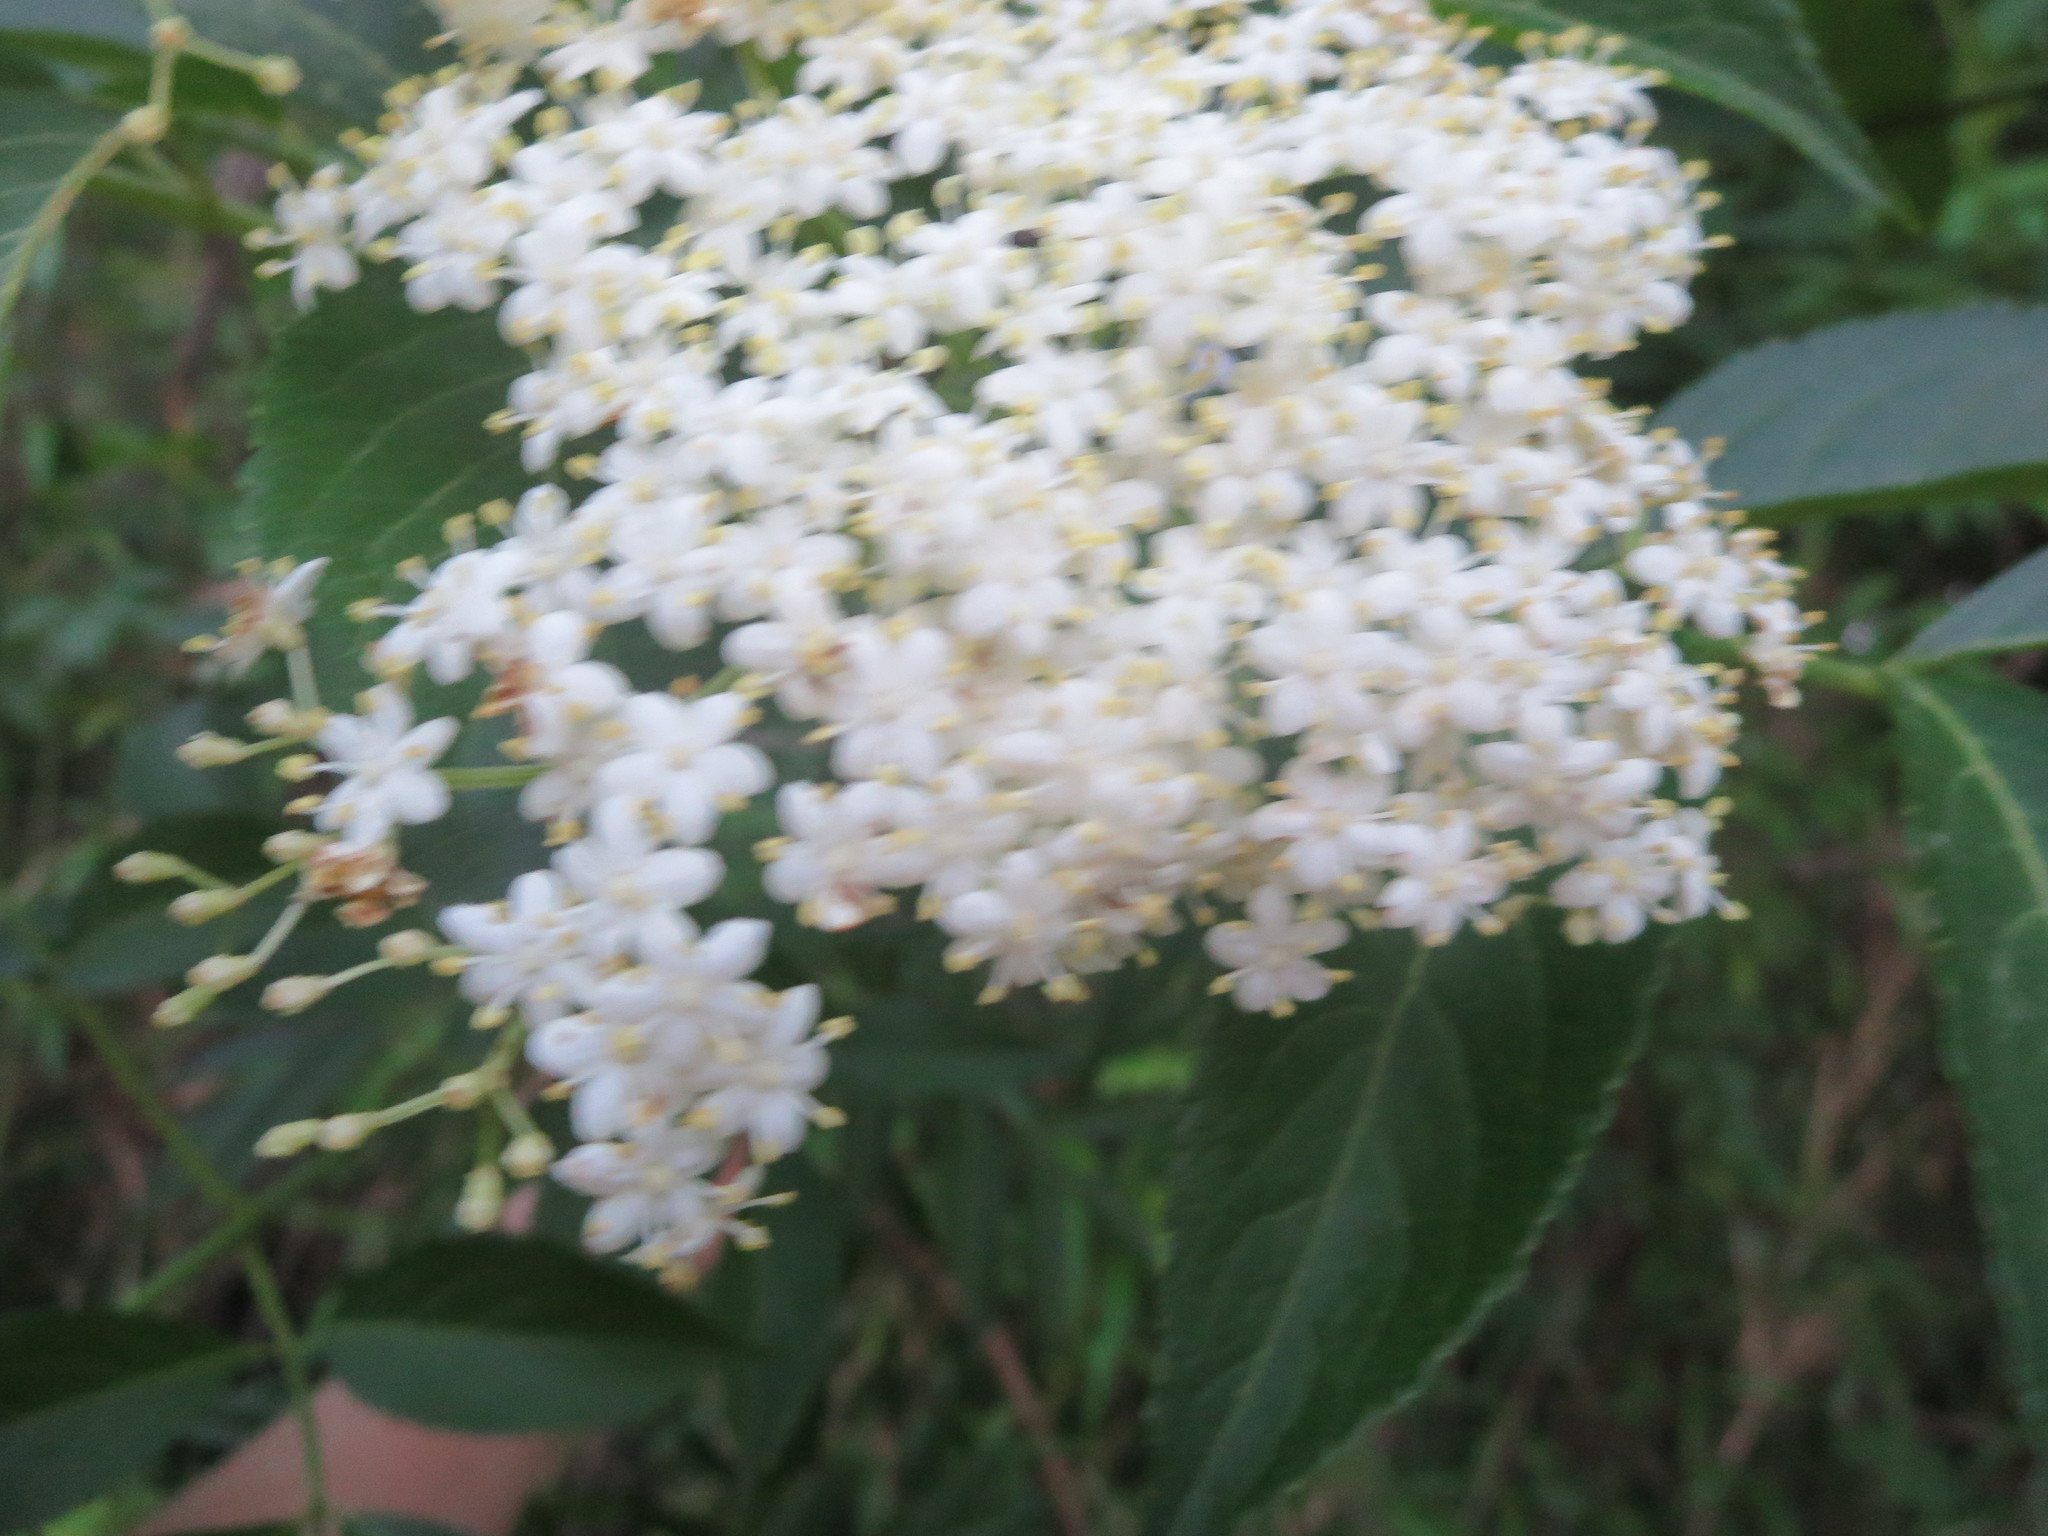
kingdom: Plantae
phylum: Tracheophyta
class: Magnoliopsida
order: Dipsacales
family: Viburnaceae
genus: Sambucus
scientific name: Sambucus canadensis
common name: American elder
